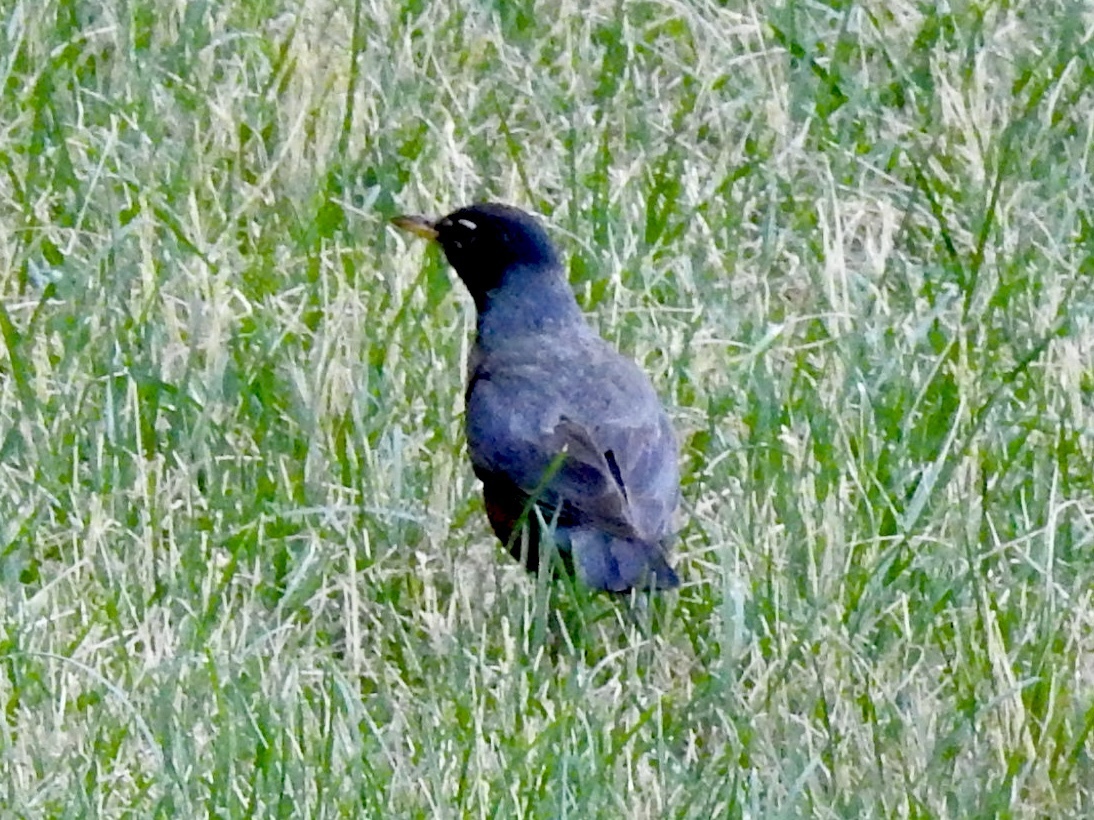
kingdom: Animalia
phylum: Chordata
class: Aves
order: Passeriformes
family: Turdidae
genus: Turdus
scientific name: Turdus migratorius
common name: American robin
